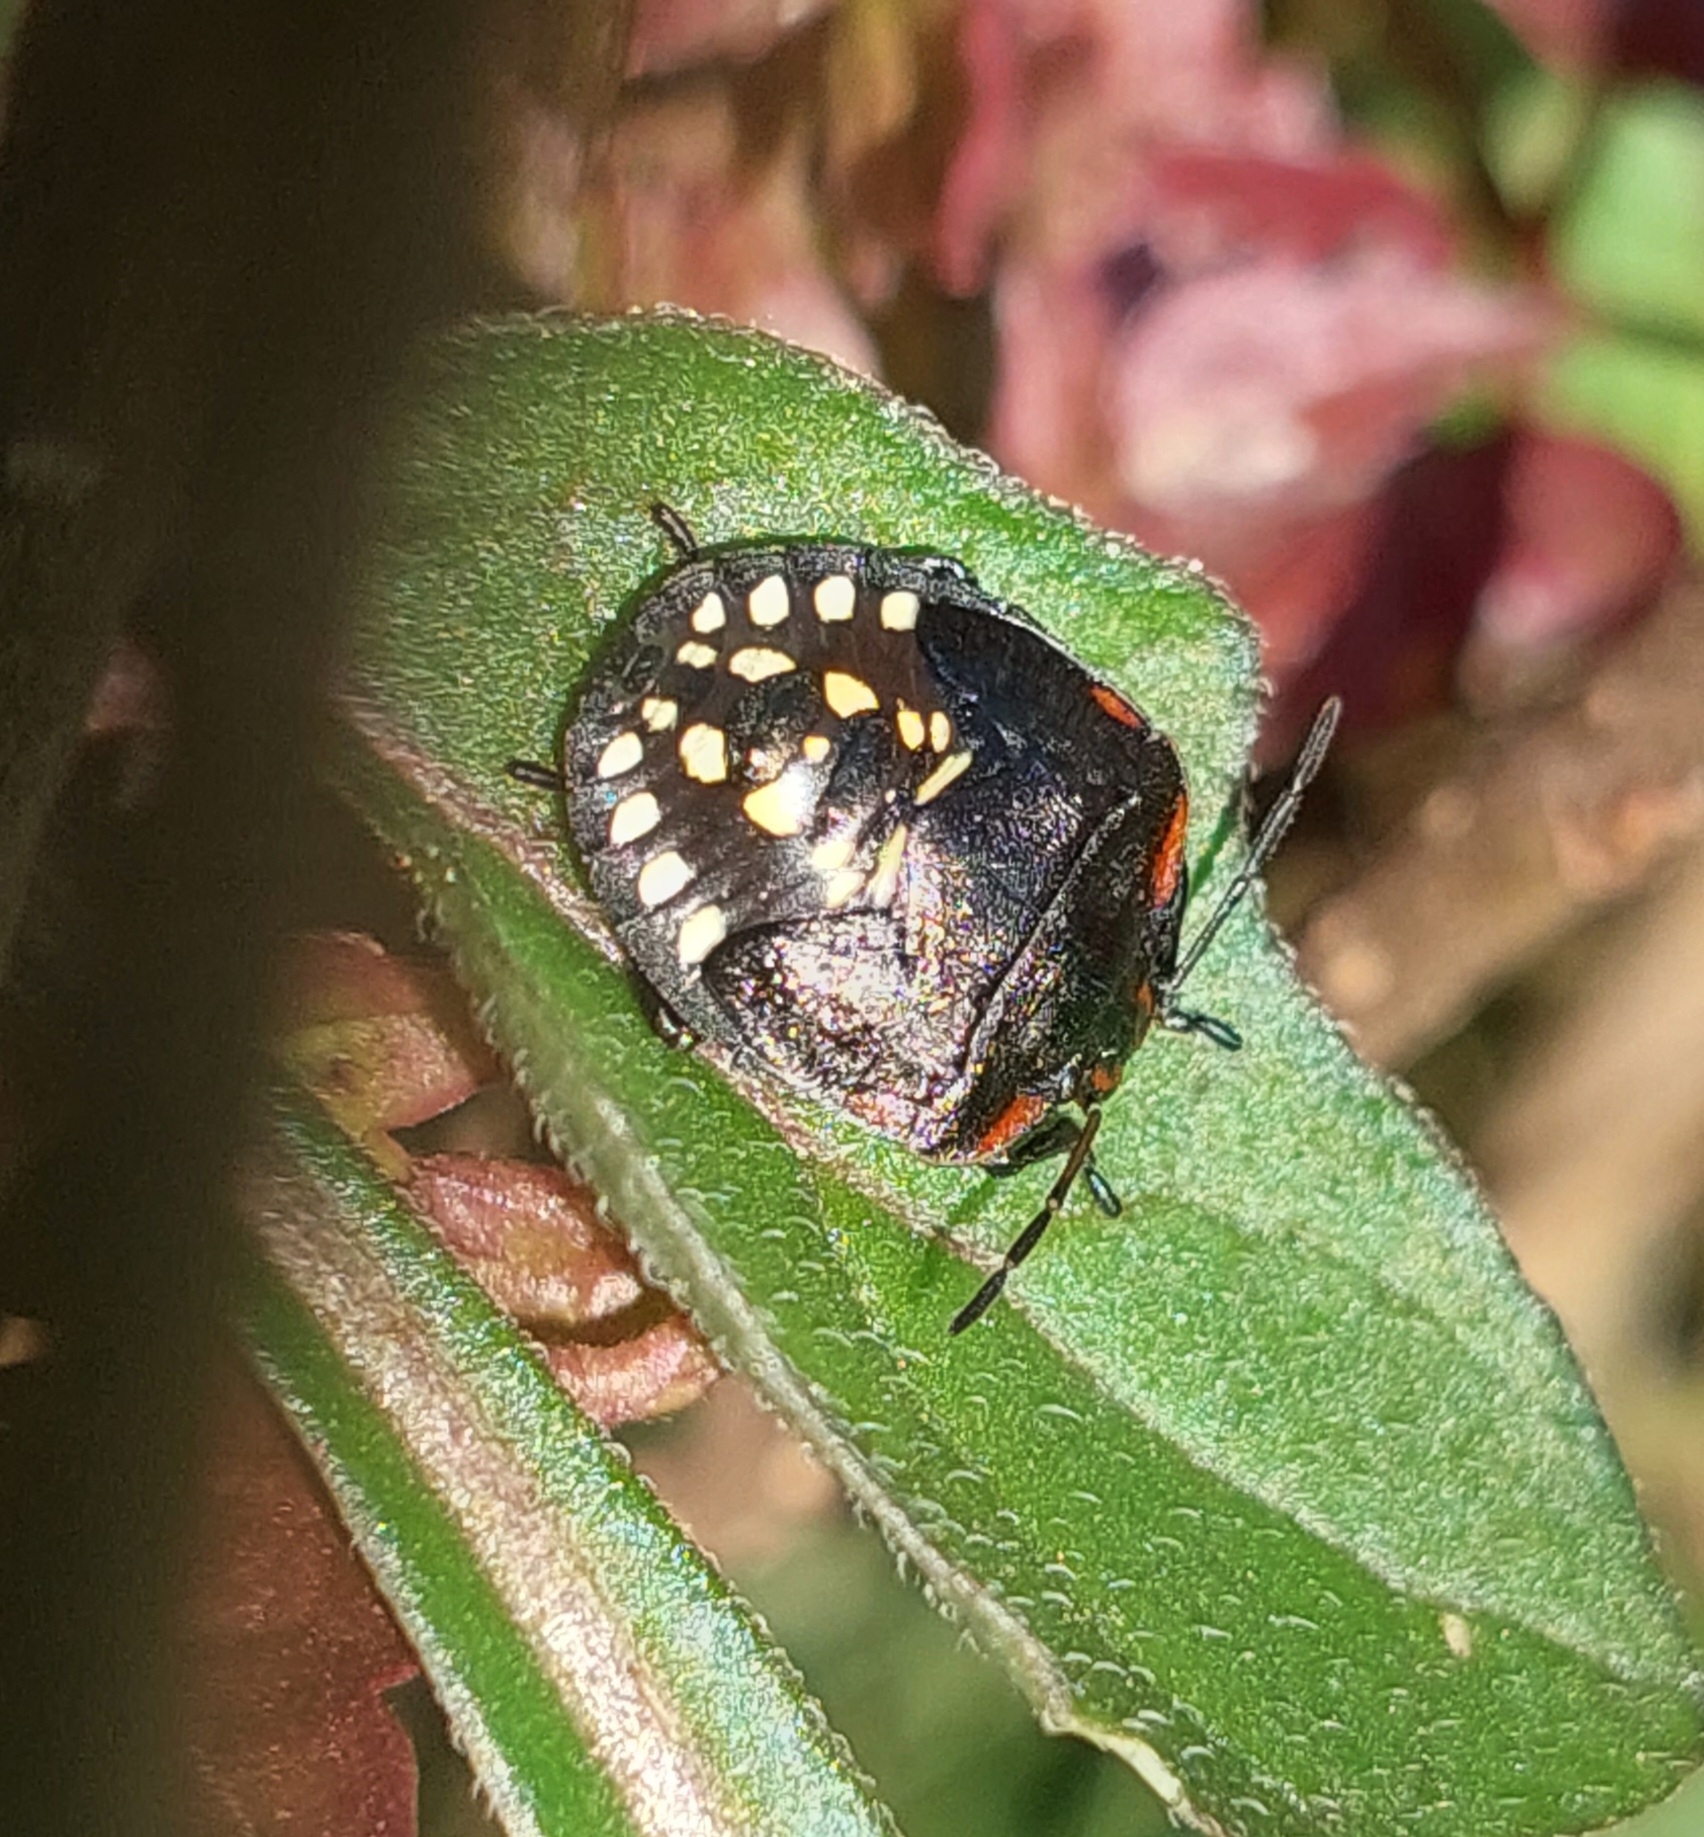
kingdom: Animalia
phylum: Arthropoda
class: Insecta
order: Hemiptera
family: Pentatomidae
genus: Nezara
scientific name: Nezara viridula
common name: Southern green stink bug
